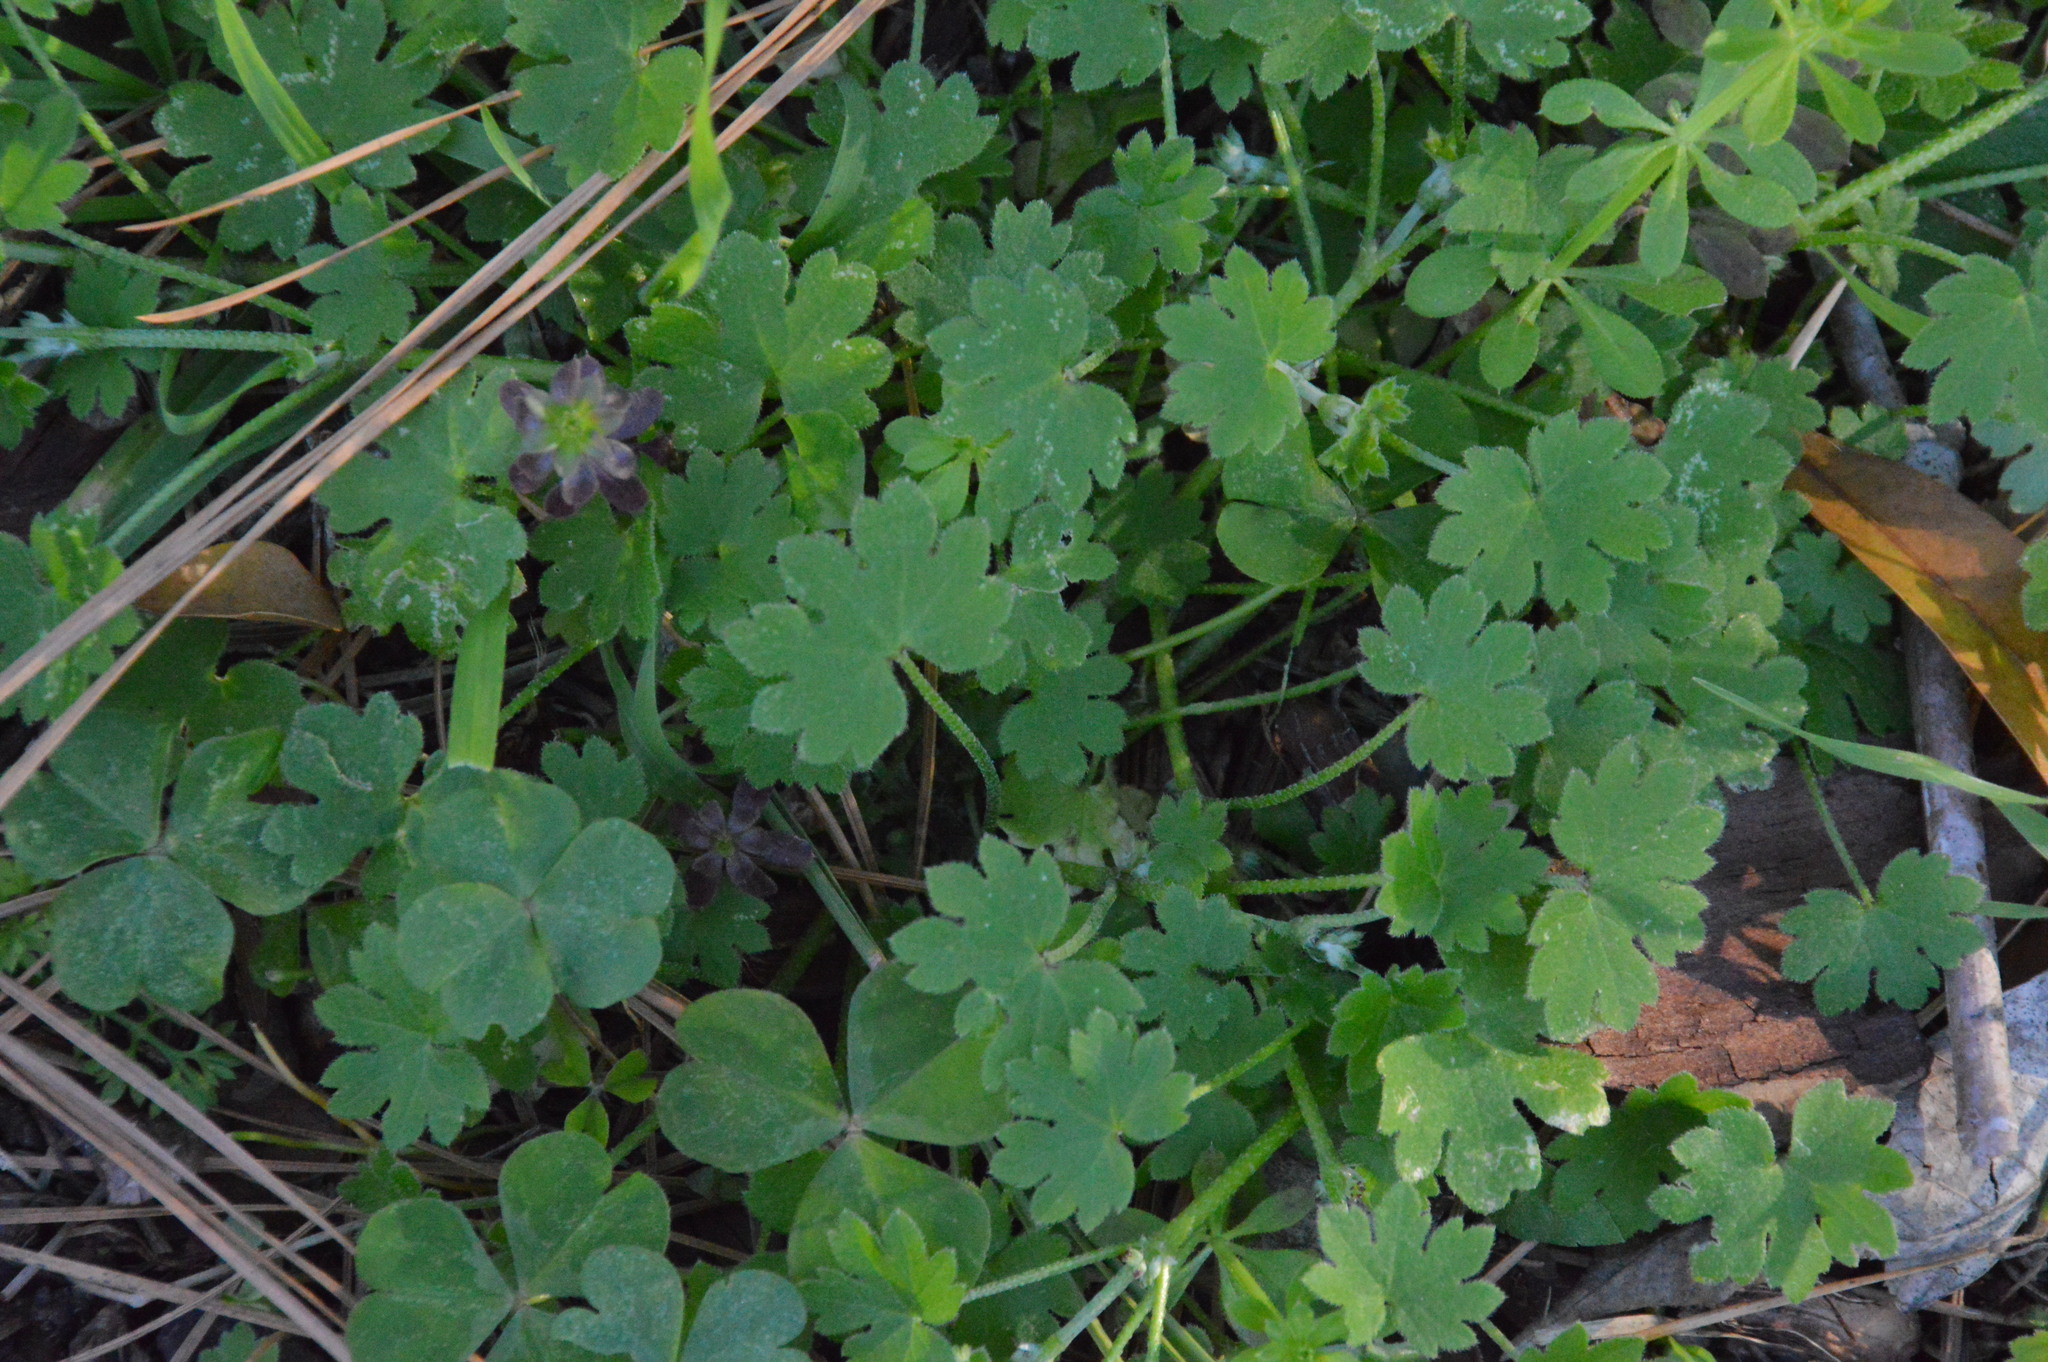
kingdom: Plantae
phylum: Tracheophyta
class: Magnoliopsida
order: Apiales
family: Apiaceae
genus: Bowlesia
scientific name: Bowlesia incana
